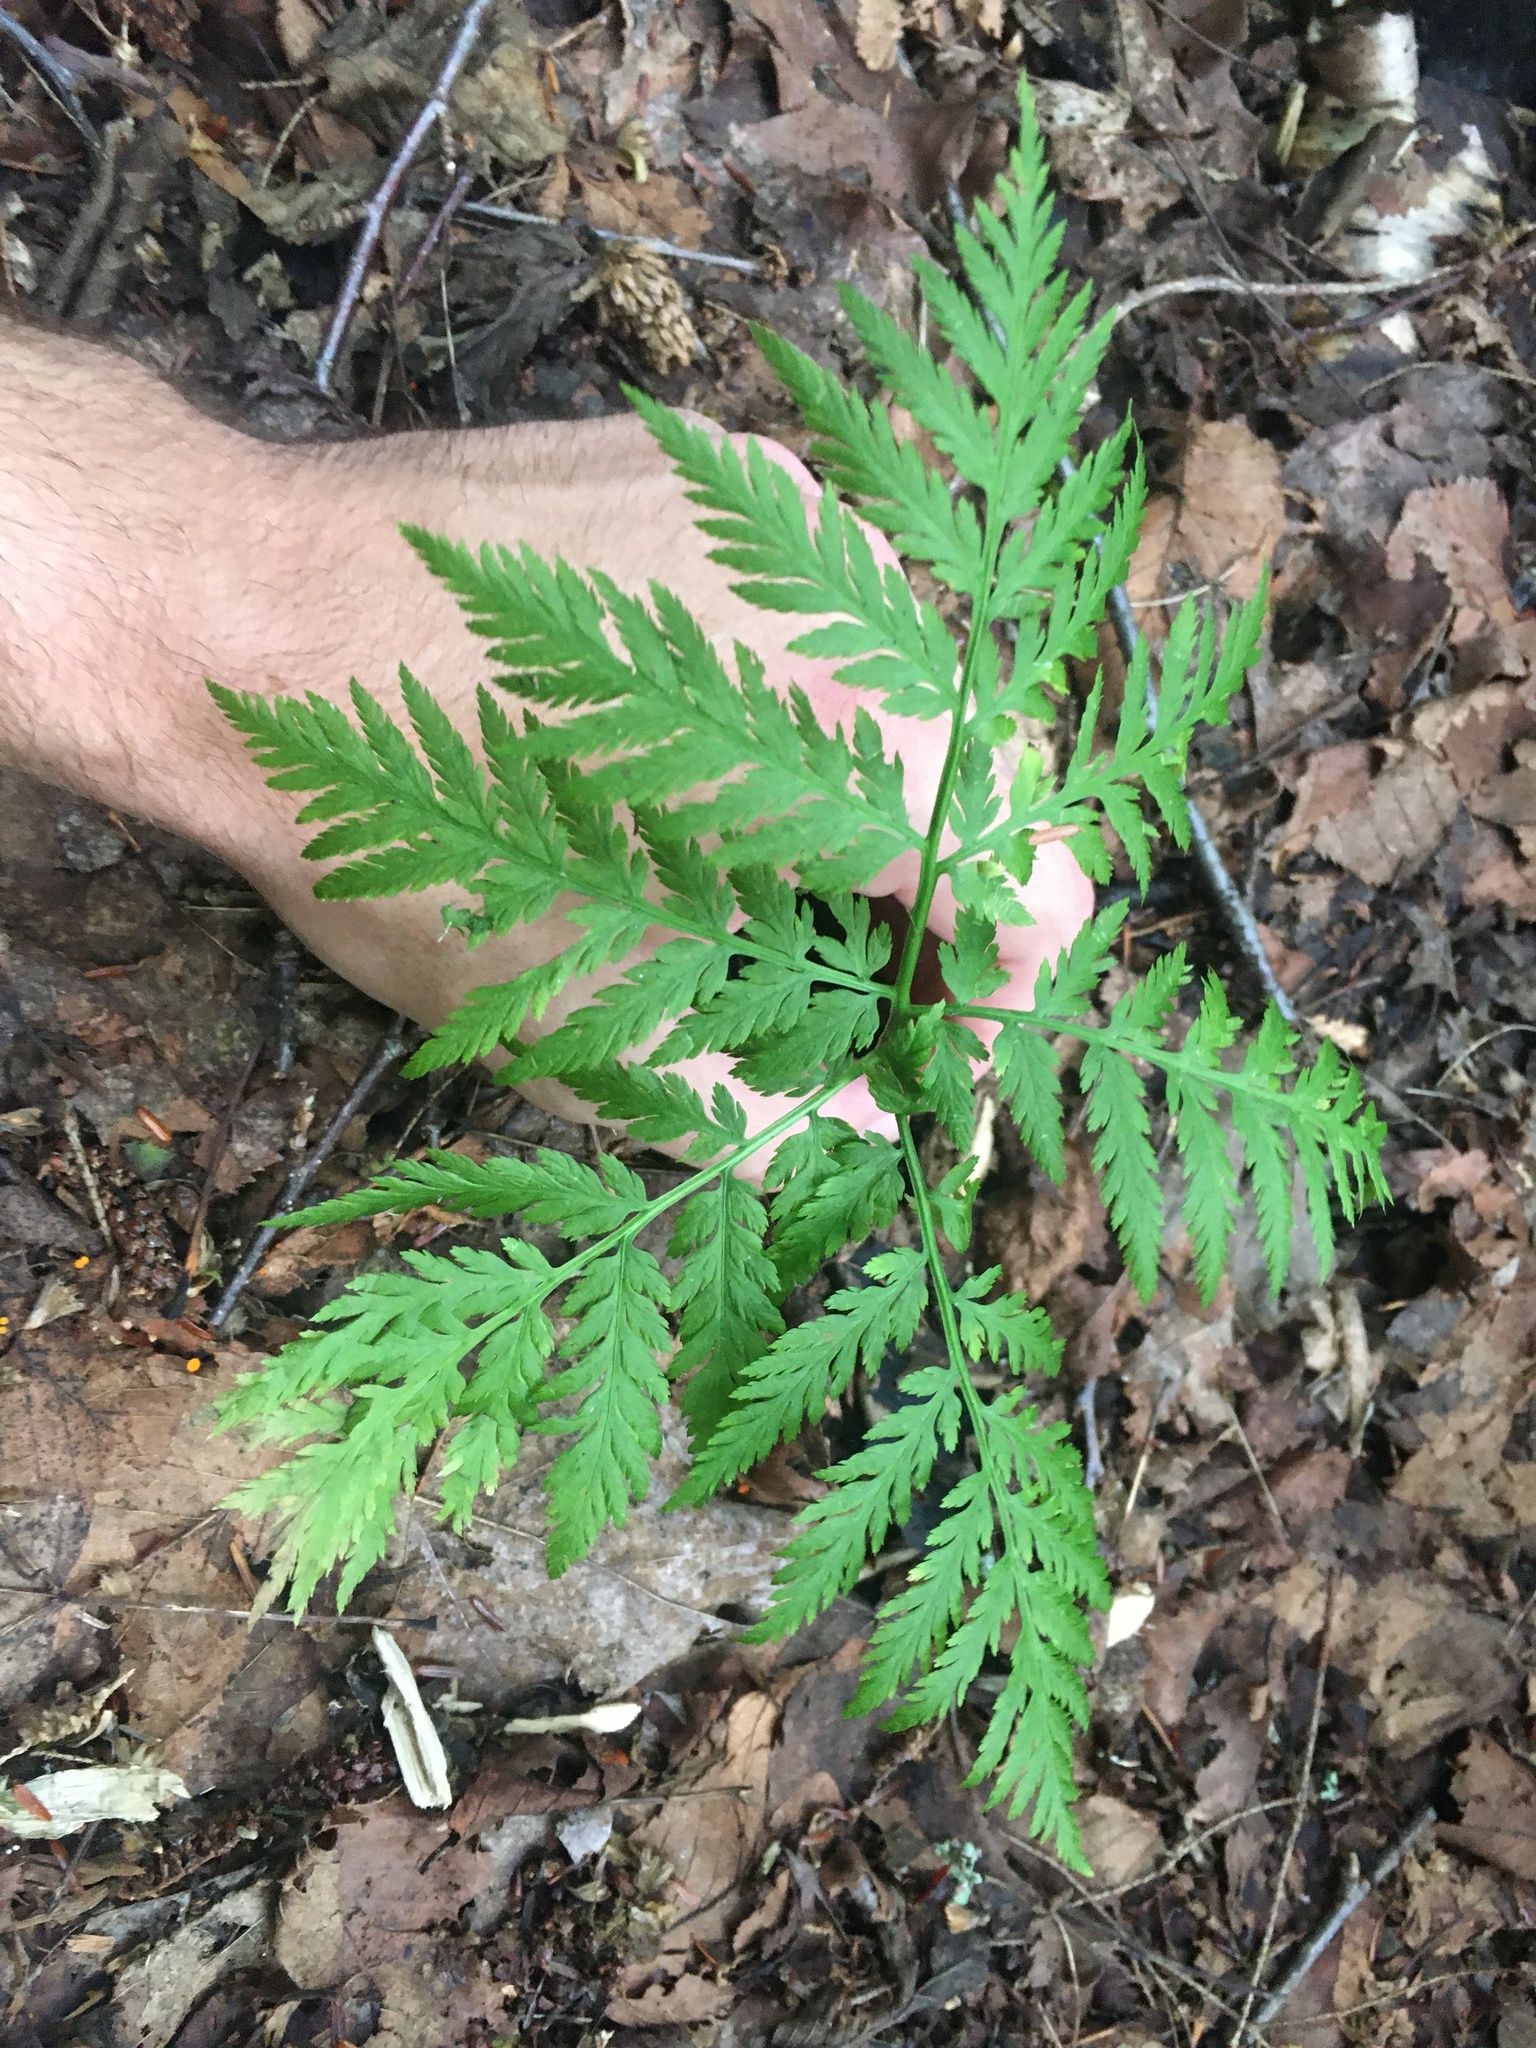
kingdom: Plantae
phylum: Tracheophyta
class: Polypodiopsida
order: Ophioglossales
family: Ophioglossaceae
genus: Botrypus
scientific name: Botrypus virginianus
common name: Common grapefern
